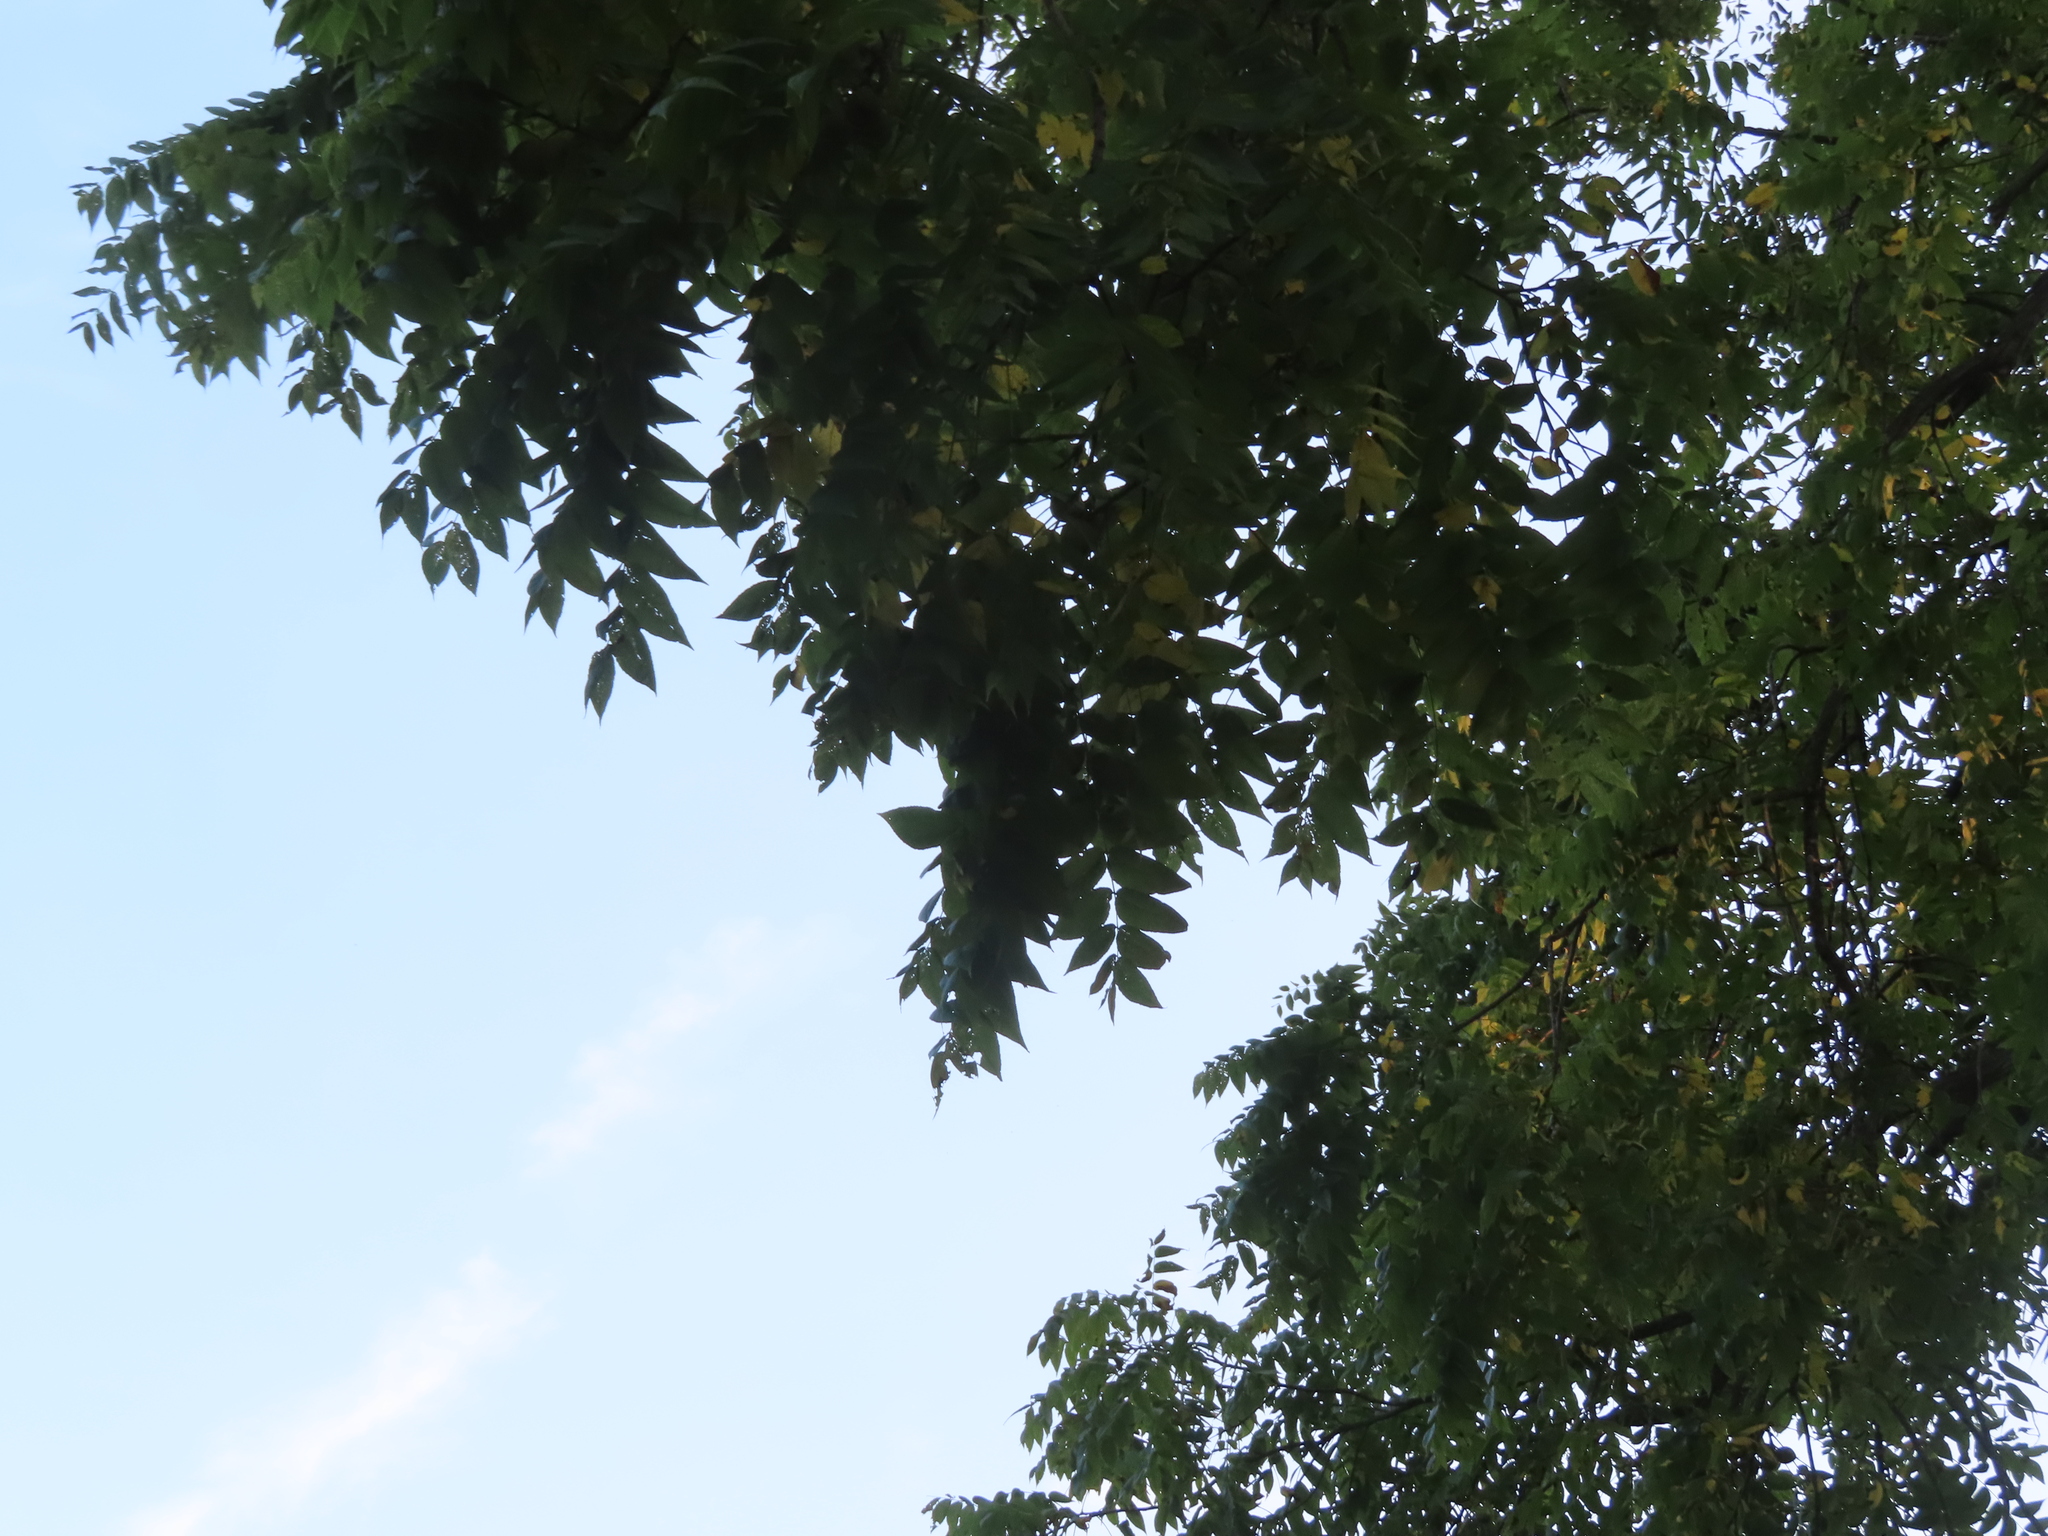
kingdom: Plantae
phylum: Tracheophyta
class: Magnoliopsida
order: Fagales
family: Juglandaceae
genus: Juglans
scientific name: Juglans nigra
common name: Black walnut
